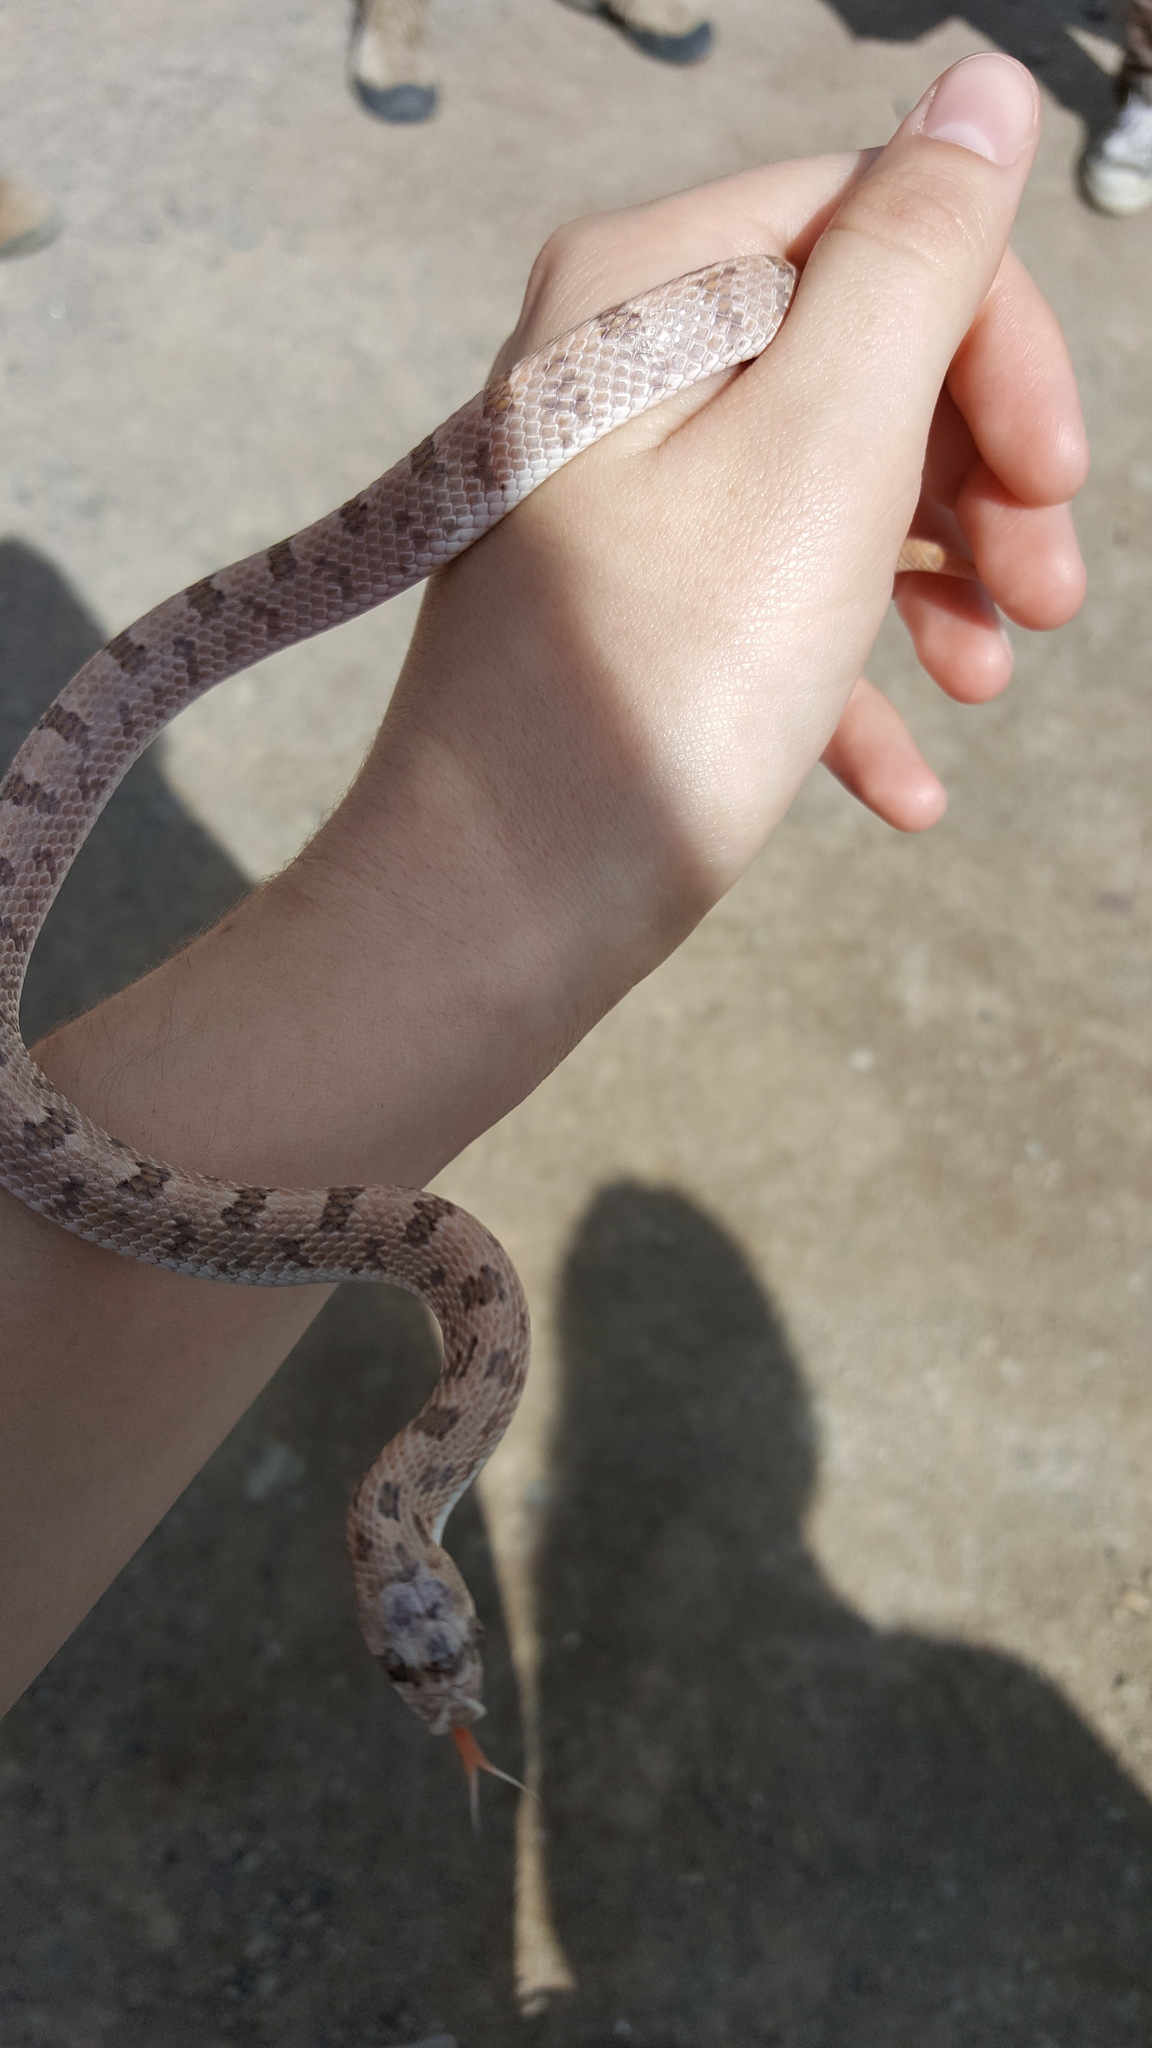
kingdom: Animalia
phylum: Chordata
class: Squamata
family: Colubridae
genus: Phyllorhynchus
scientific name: Phyllorhynchus decurtatus
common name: Spotted leafnose snake
